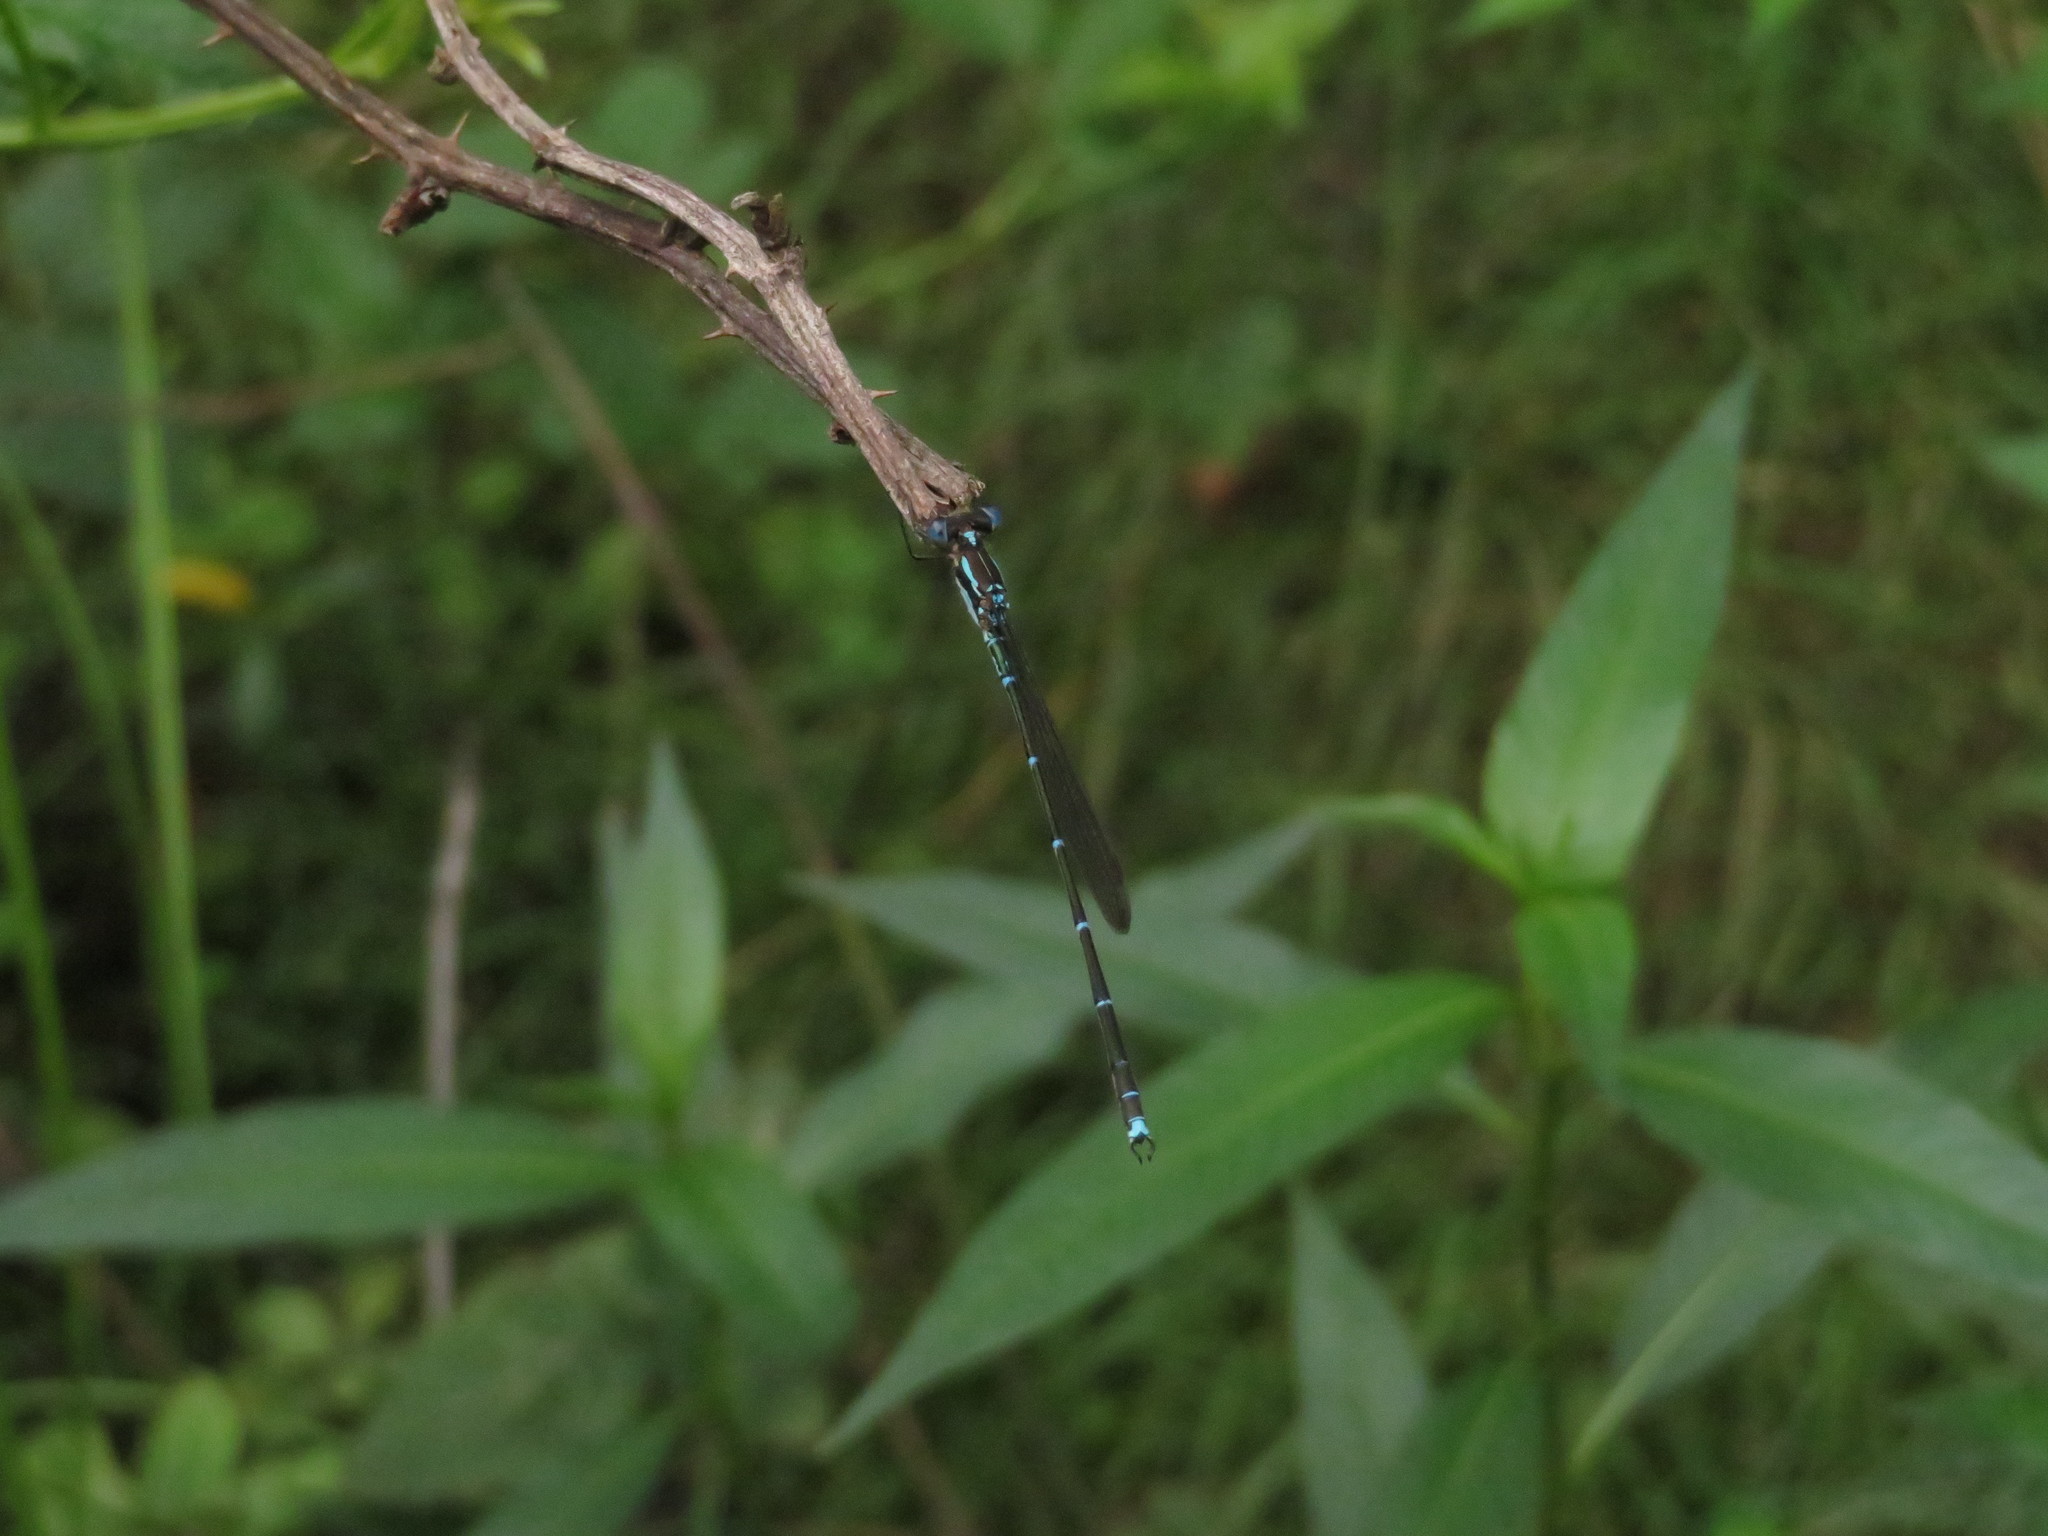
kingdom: Animalia
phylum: Arthropoda
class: Insecta
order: Odonata
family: Lestidae
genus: Austrolestes
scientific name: Austrolestes colensonis
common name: Blue damselfly
